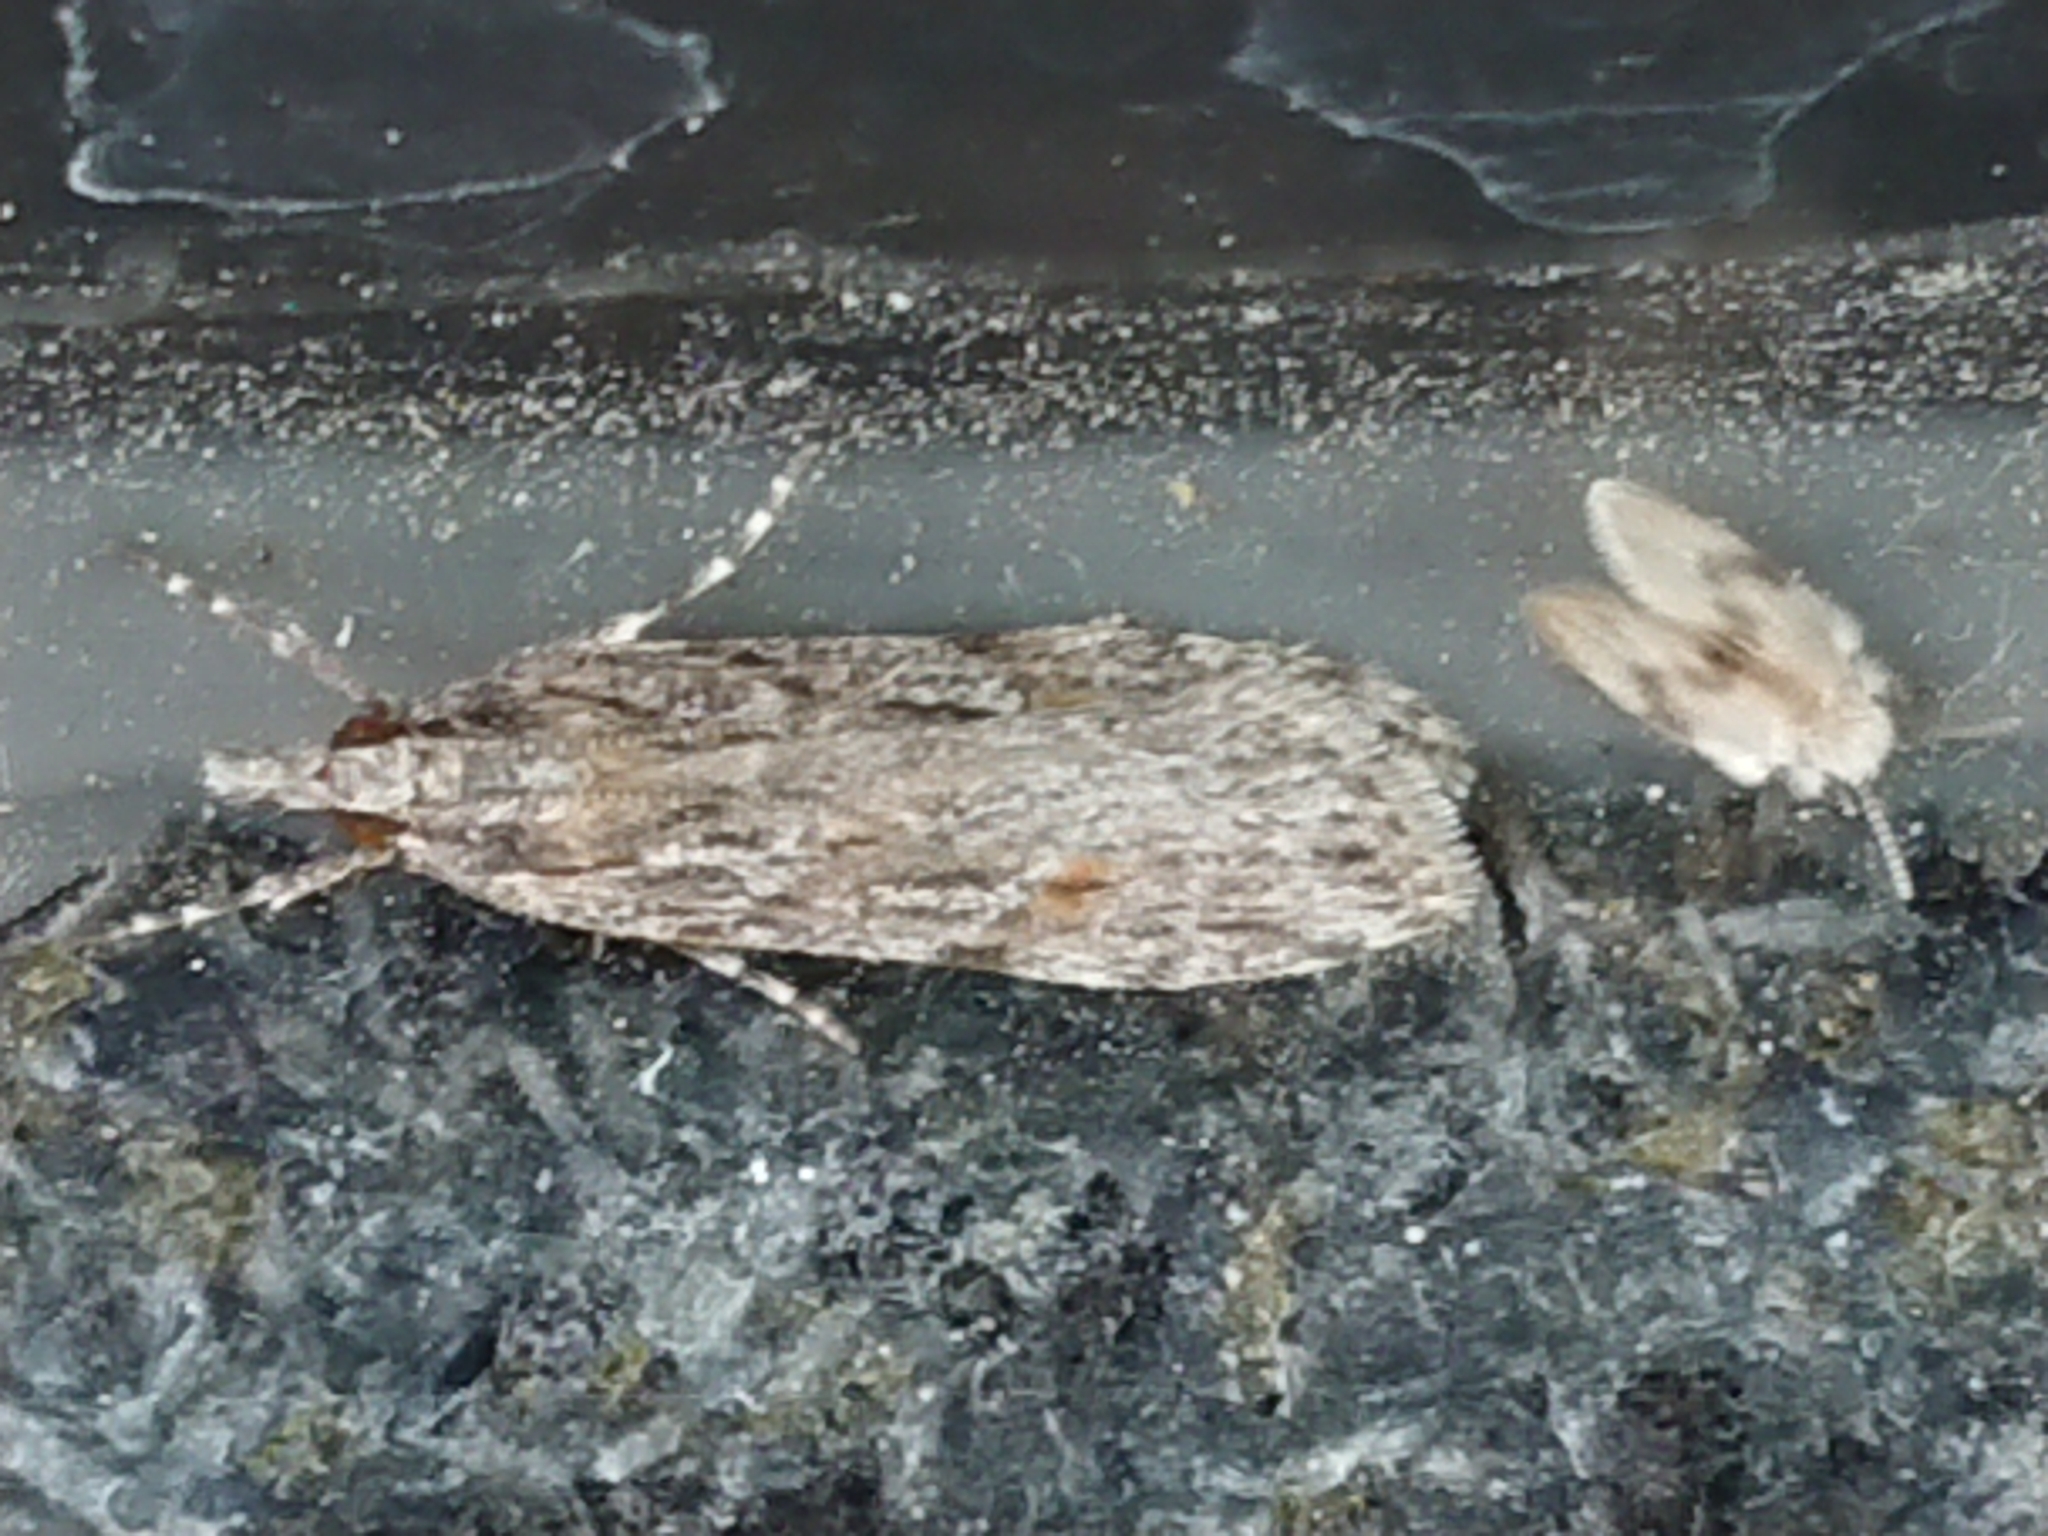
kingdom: Animalia
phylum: Arthropoda
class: Insecta
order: Lepidoptera
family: Crambidae
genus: Scoparia
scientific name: Scoparia chalicodes
